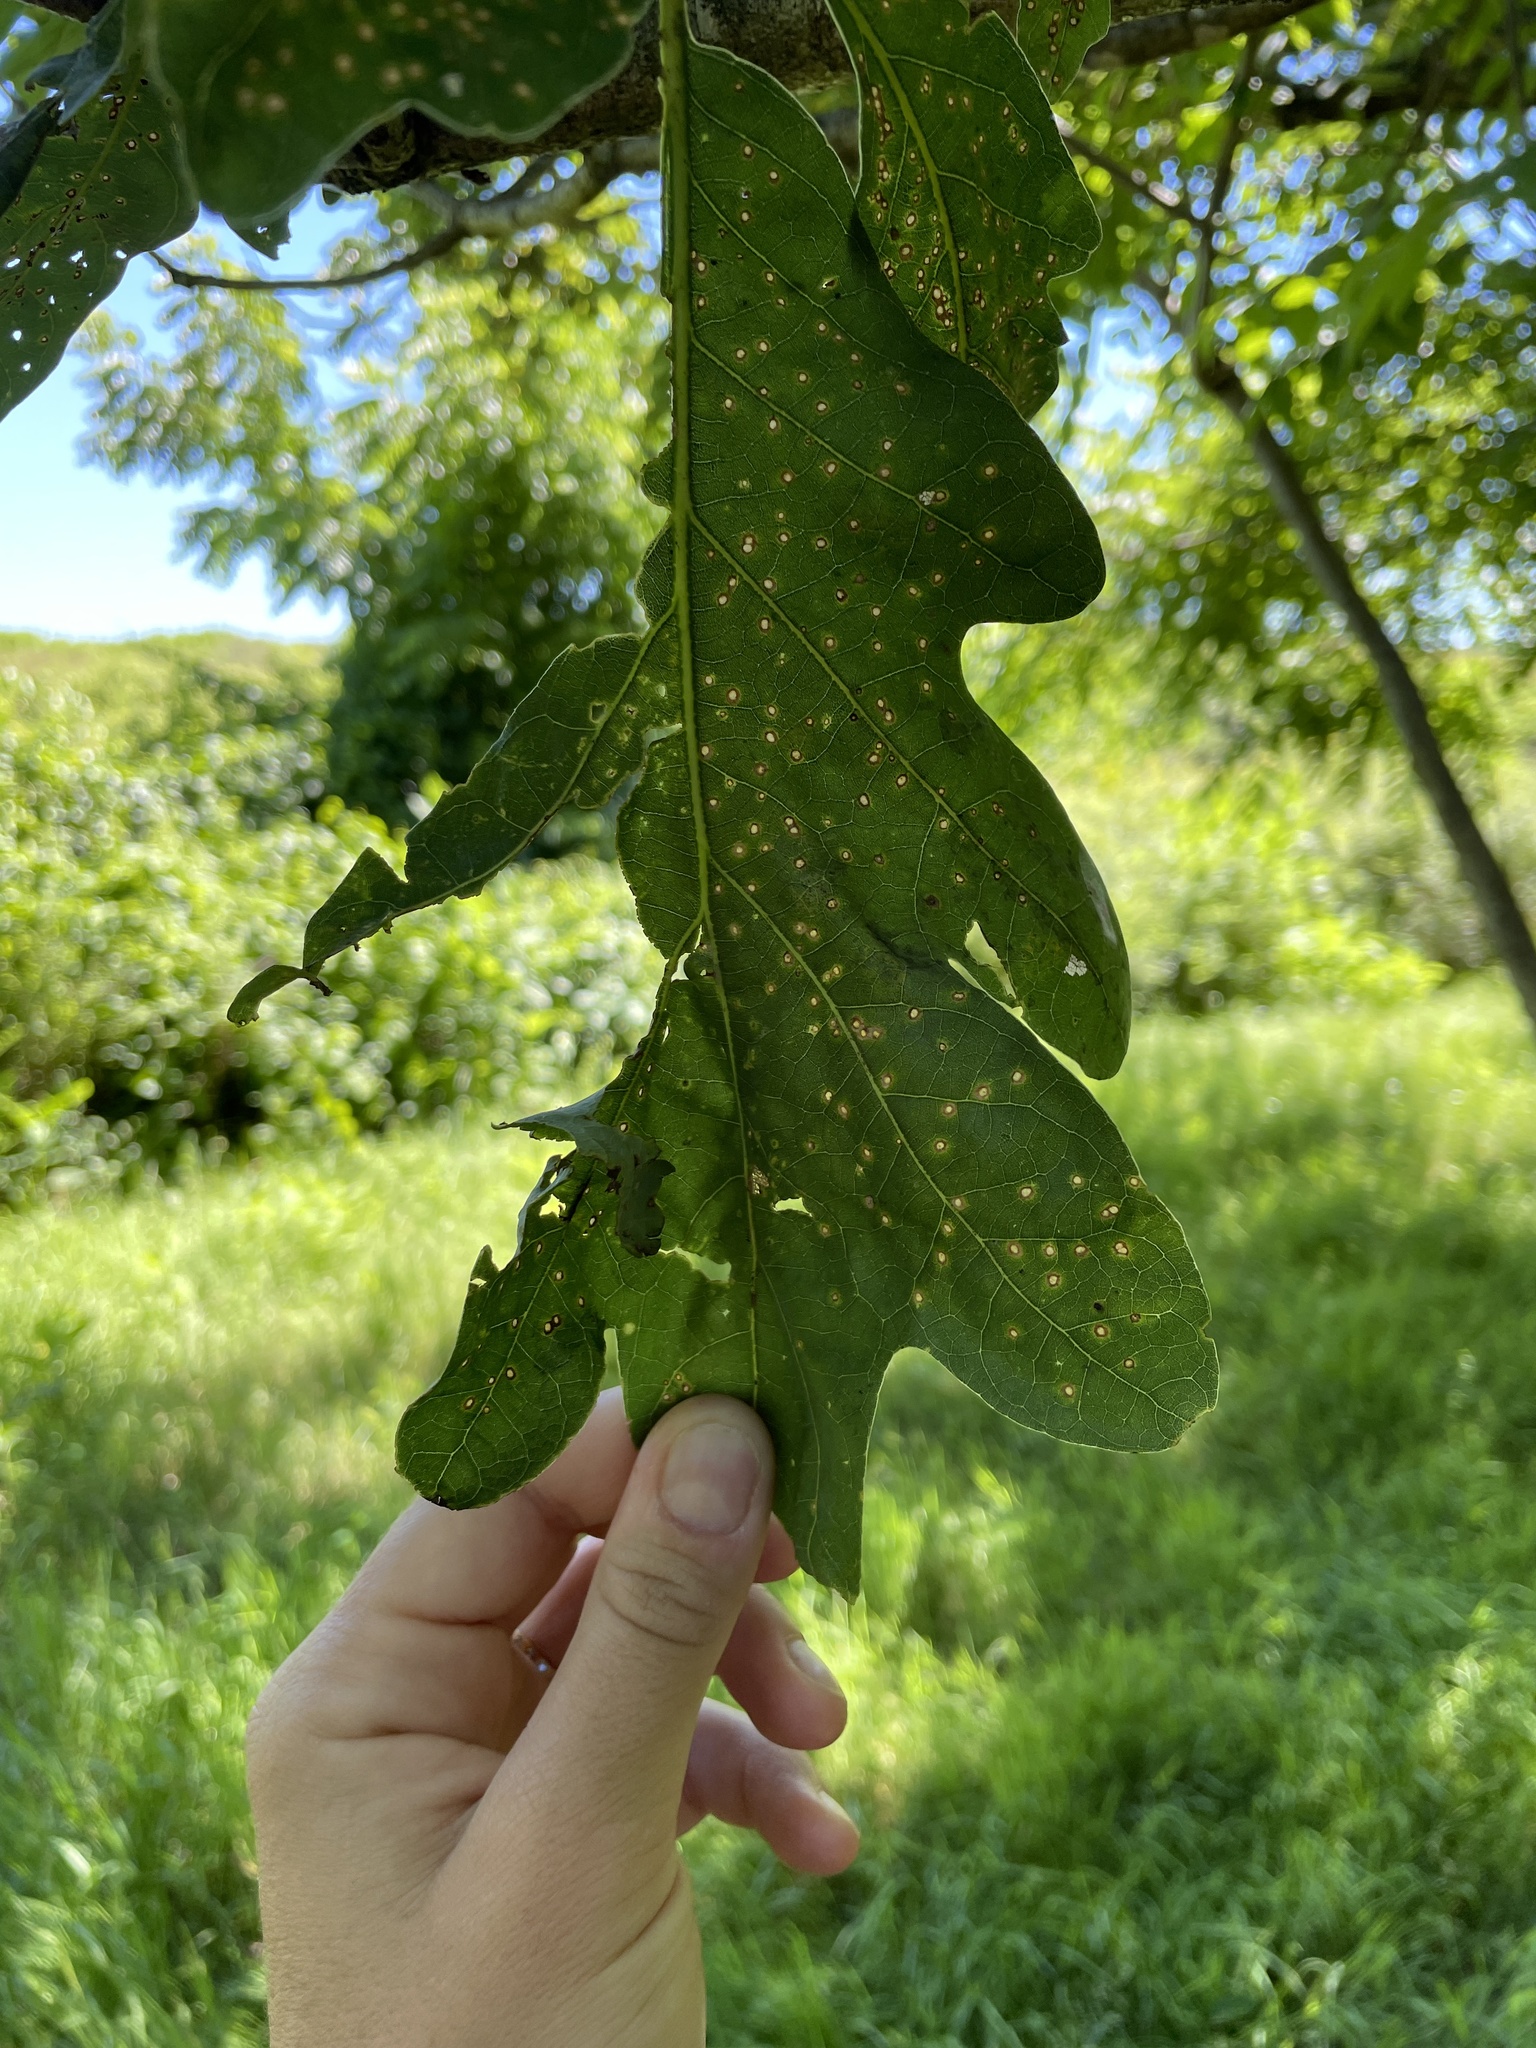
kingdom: Animalia
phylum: Arthropoda
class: Insecta
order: Hymenoptera
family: Cynipidae
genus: Neuroterus
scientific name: Neuroterus
